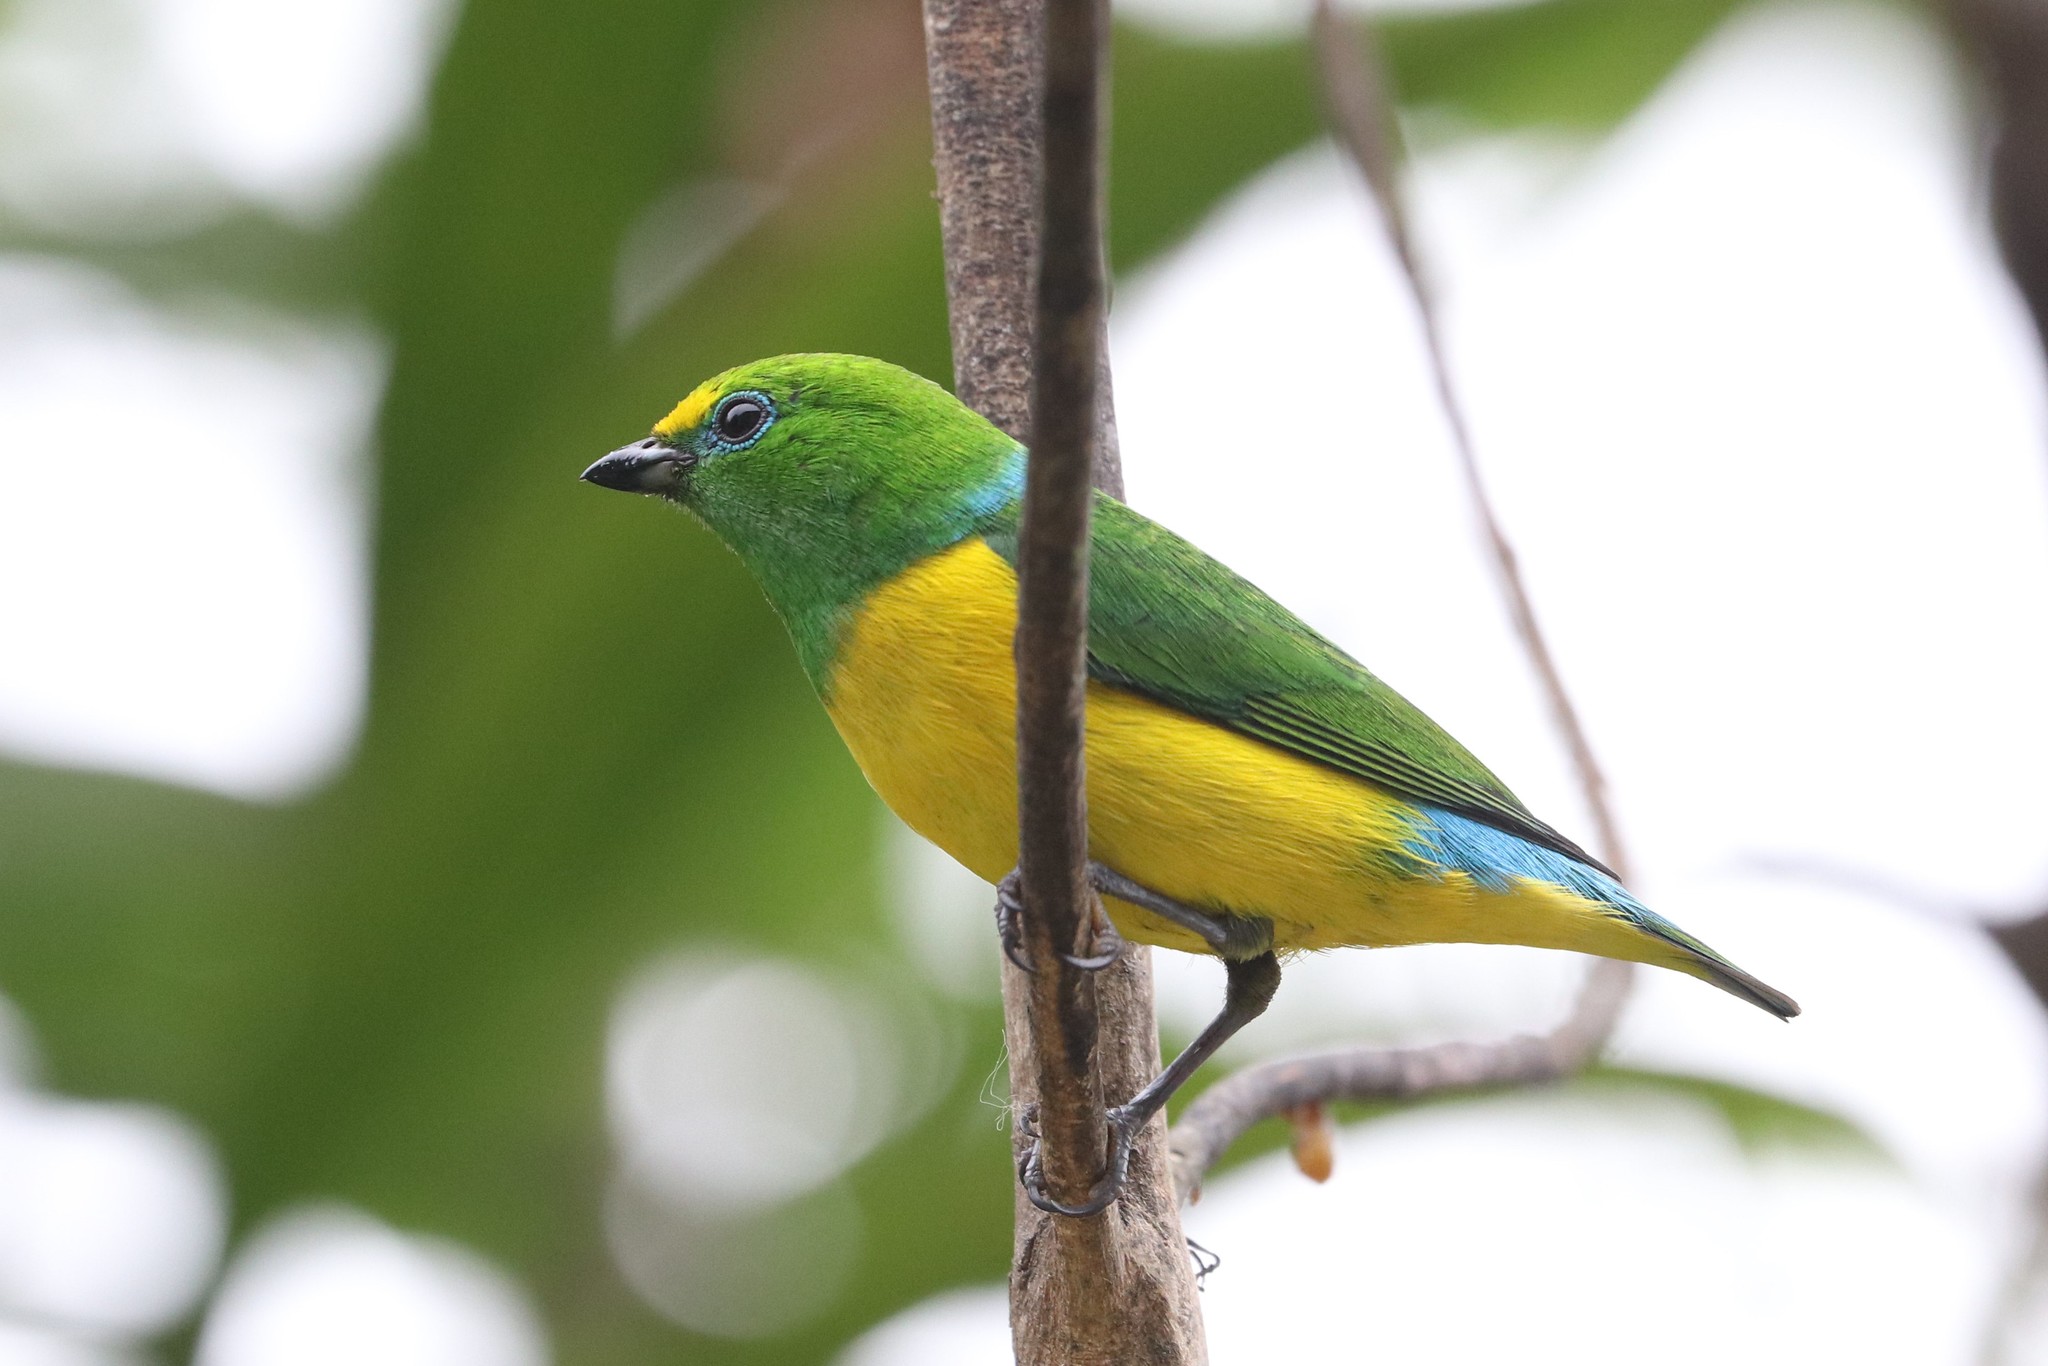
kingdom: Animalia
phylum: Chordata
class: Aves
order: Passeriformes
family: Fringillidae
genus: Chlorophonia
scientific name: Chlorophonia cyanea
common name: Blue-naped chlorophonia
